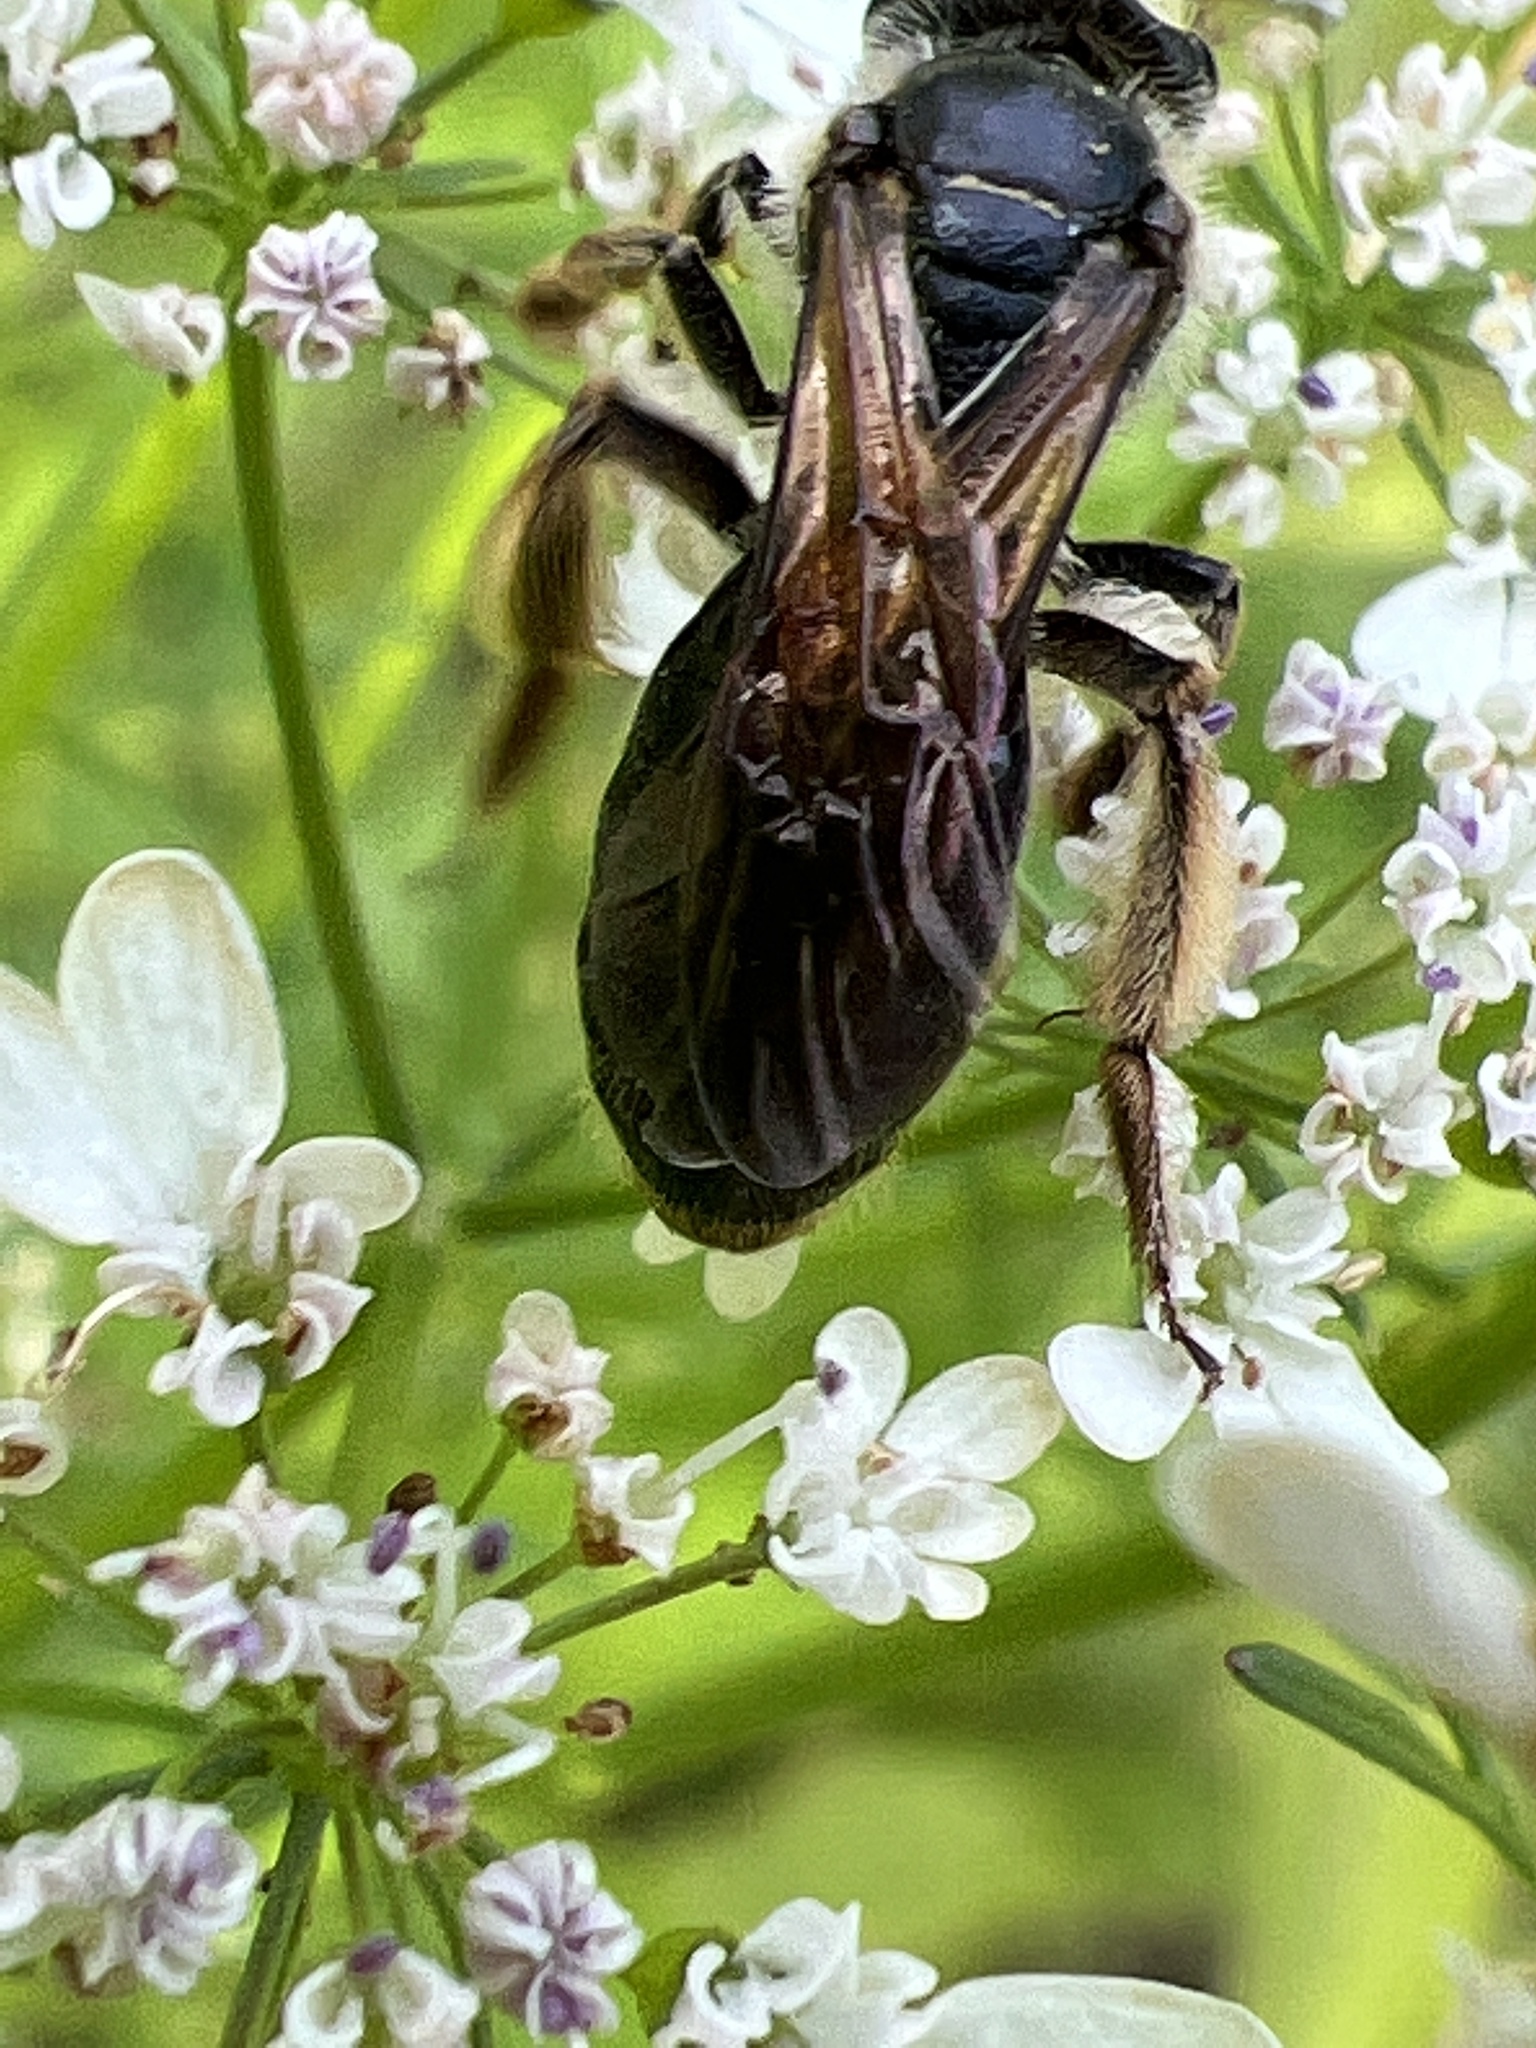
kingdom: Animalia
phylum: Arthropoda
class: Insecta
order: Hymenoptera
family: Andrenidae
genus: Andrena
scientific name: Andrena crataegi
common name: Hawthorn mining bee
